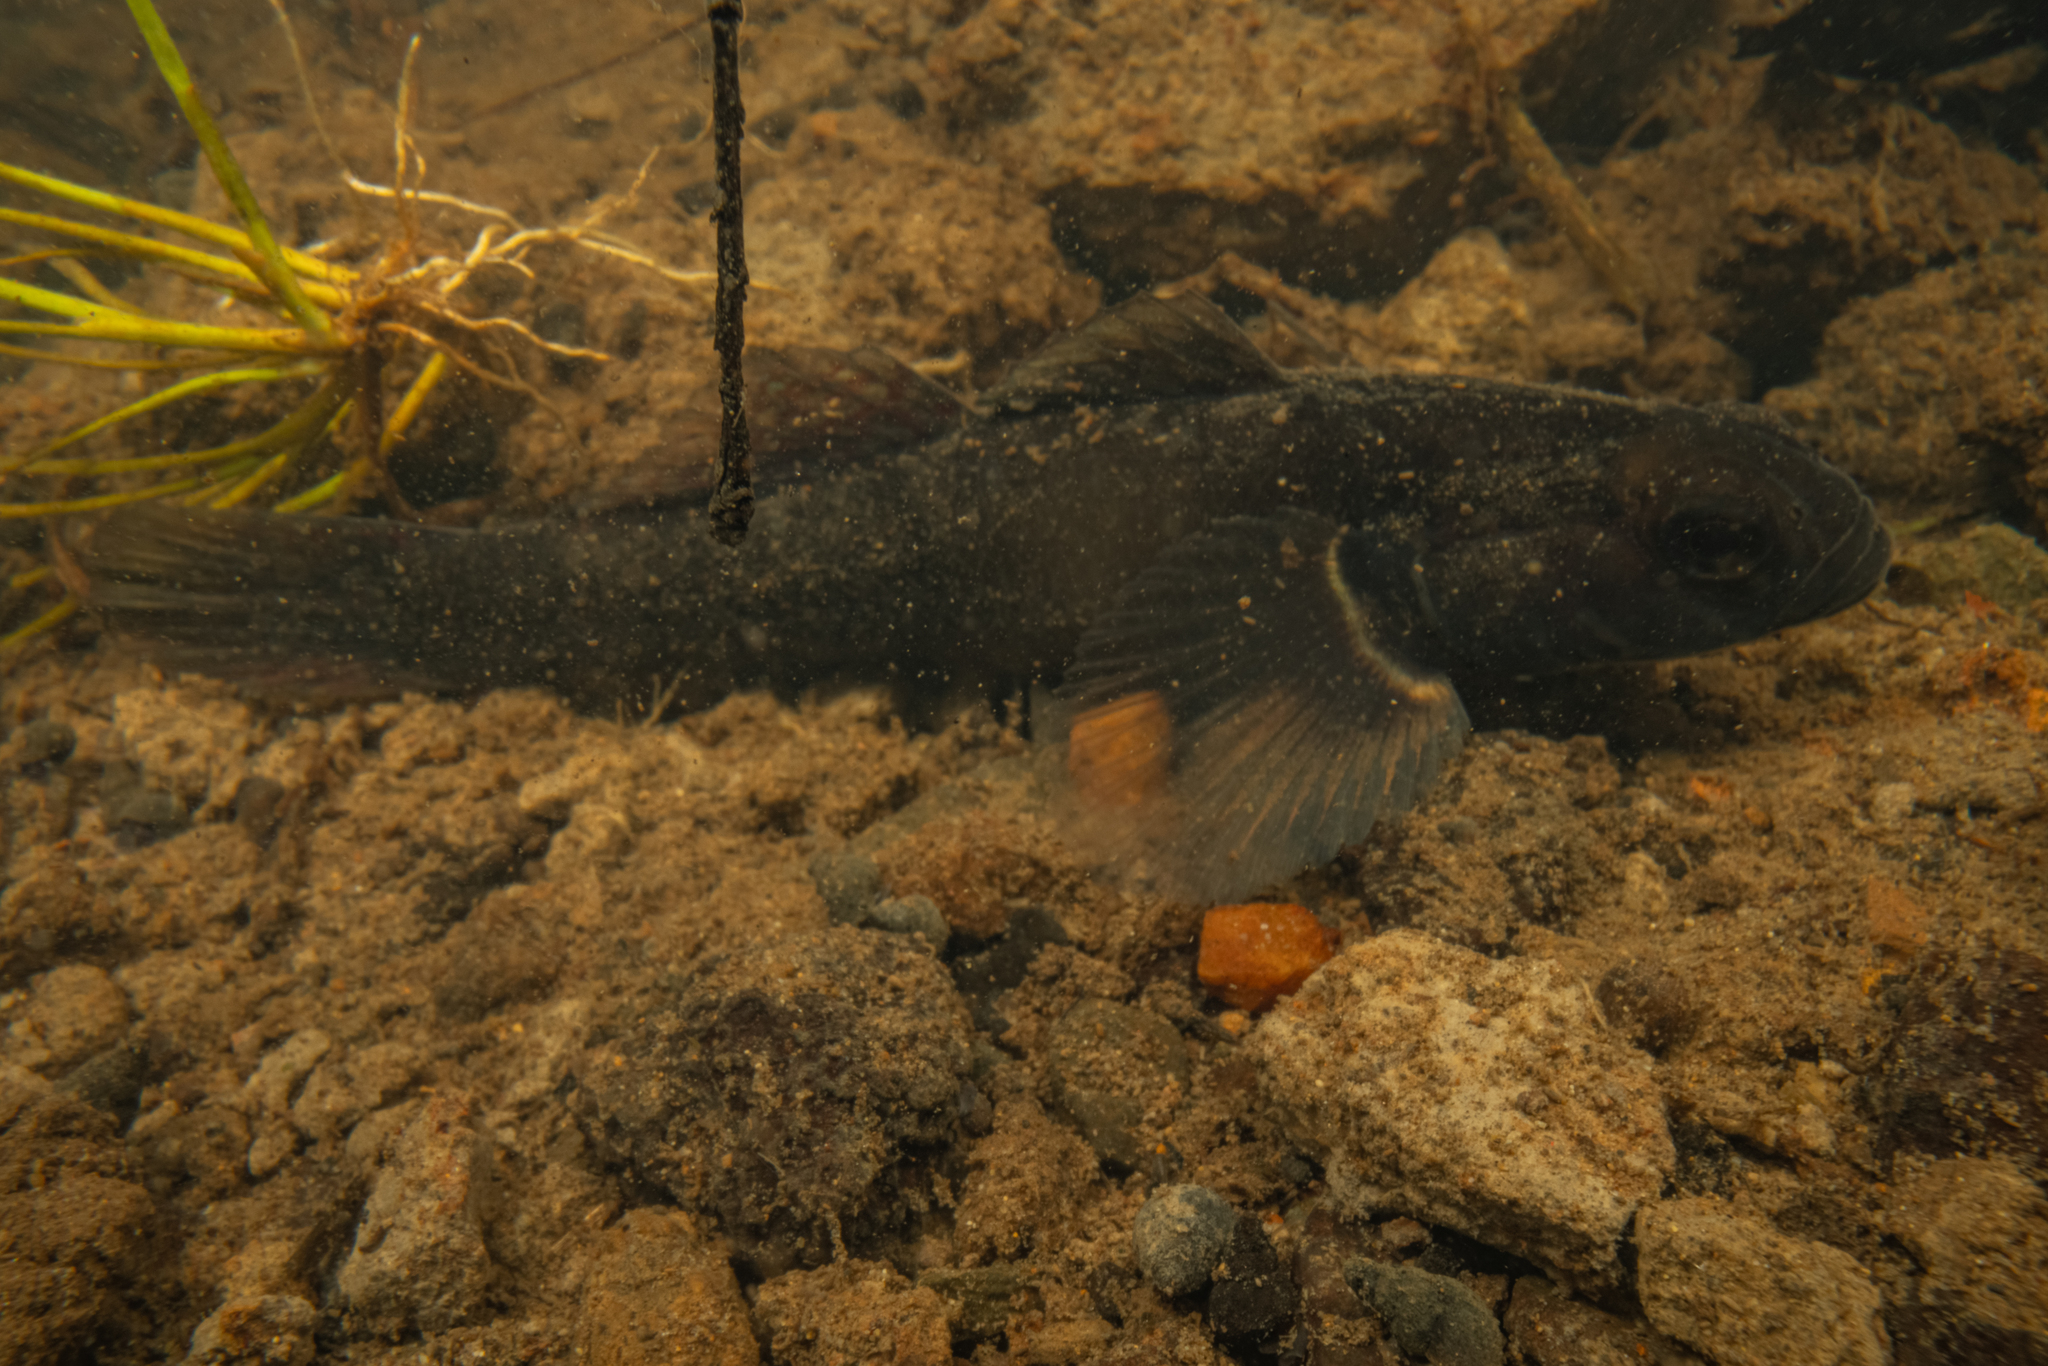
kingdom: Animalia
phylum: Chordata
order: Perciformes
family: Eleotridae
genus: Gobiomorphus
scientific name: Gobiomorphus cotidianus
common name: Common bully
